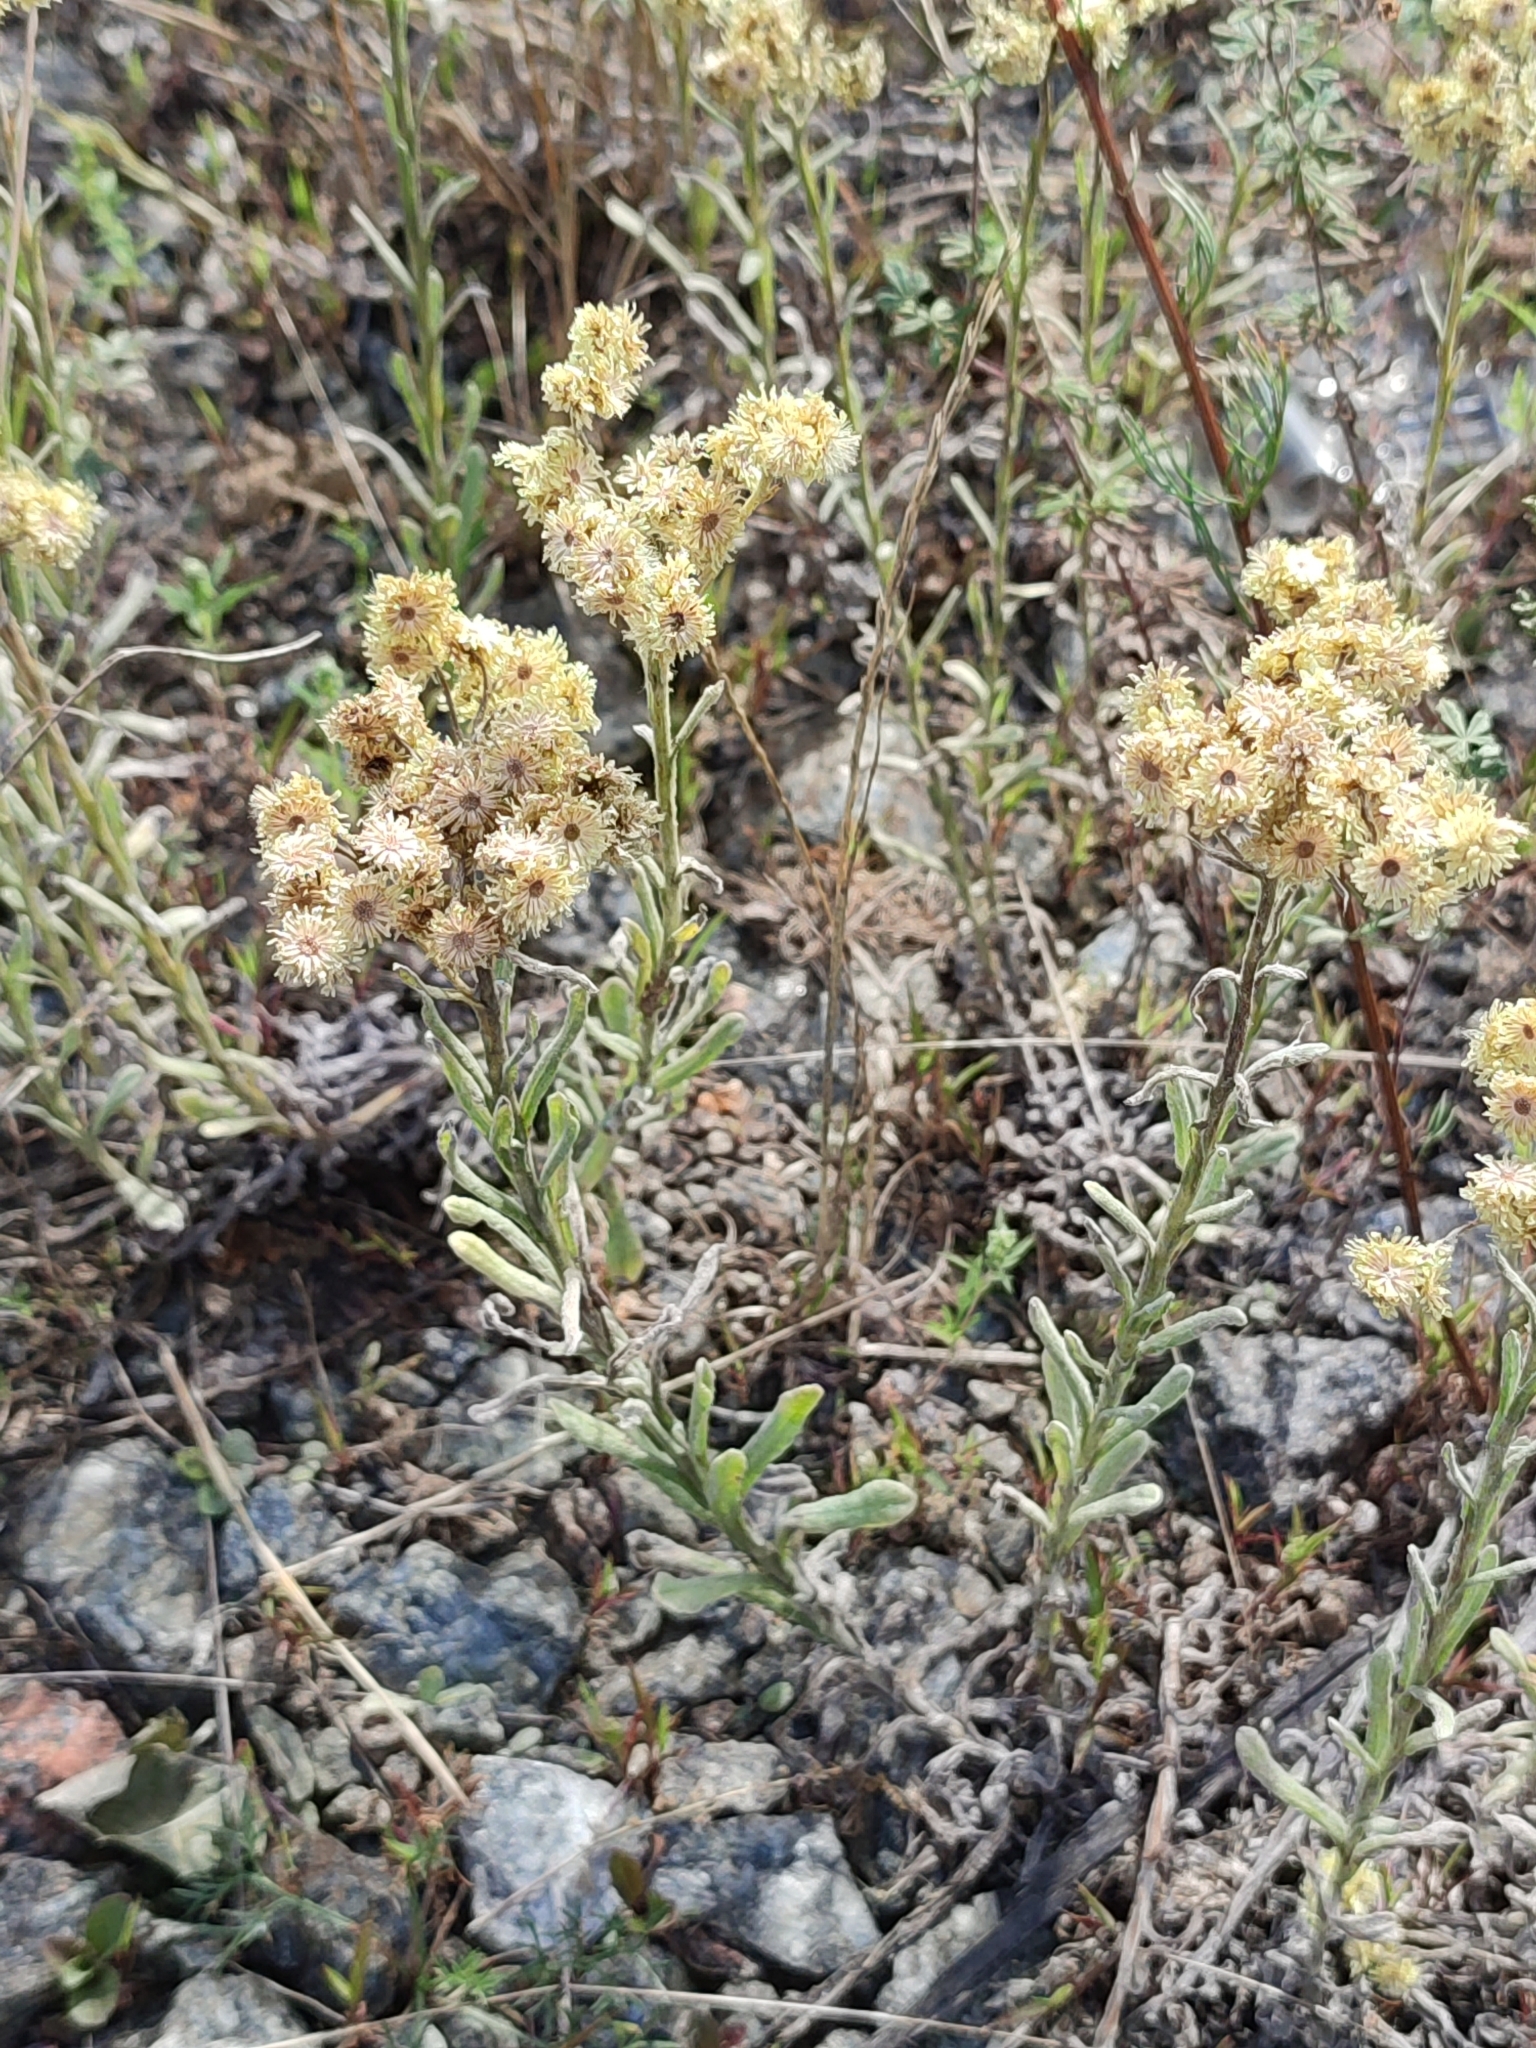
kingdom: Plantae
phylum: Tracheophyta
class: Magnoliopsida
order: Asterales
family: Asteraceae
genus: Helichrysum
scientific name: Helichrysum arenarium
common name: Strawflower
